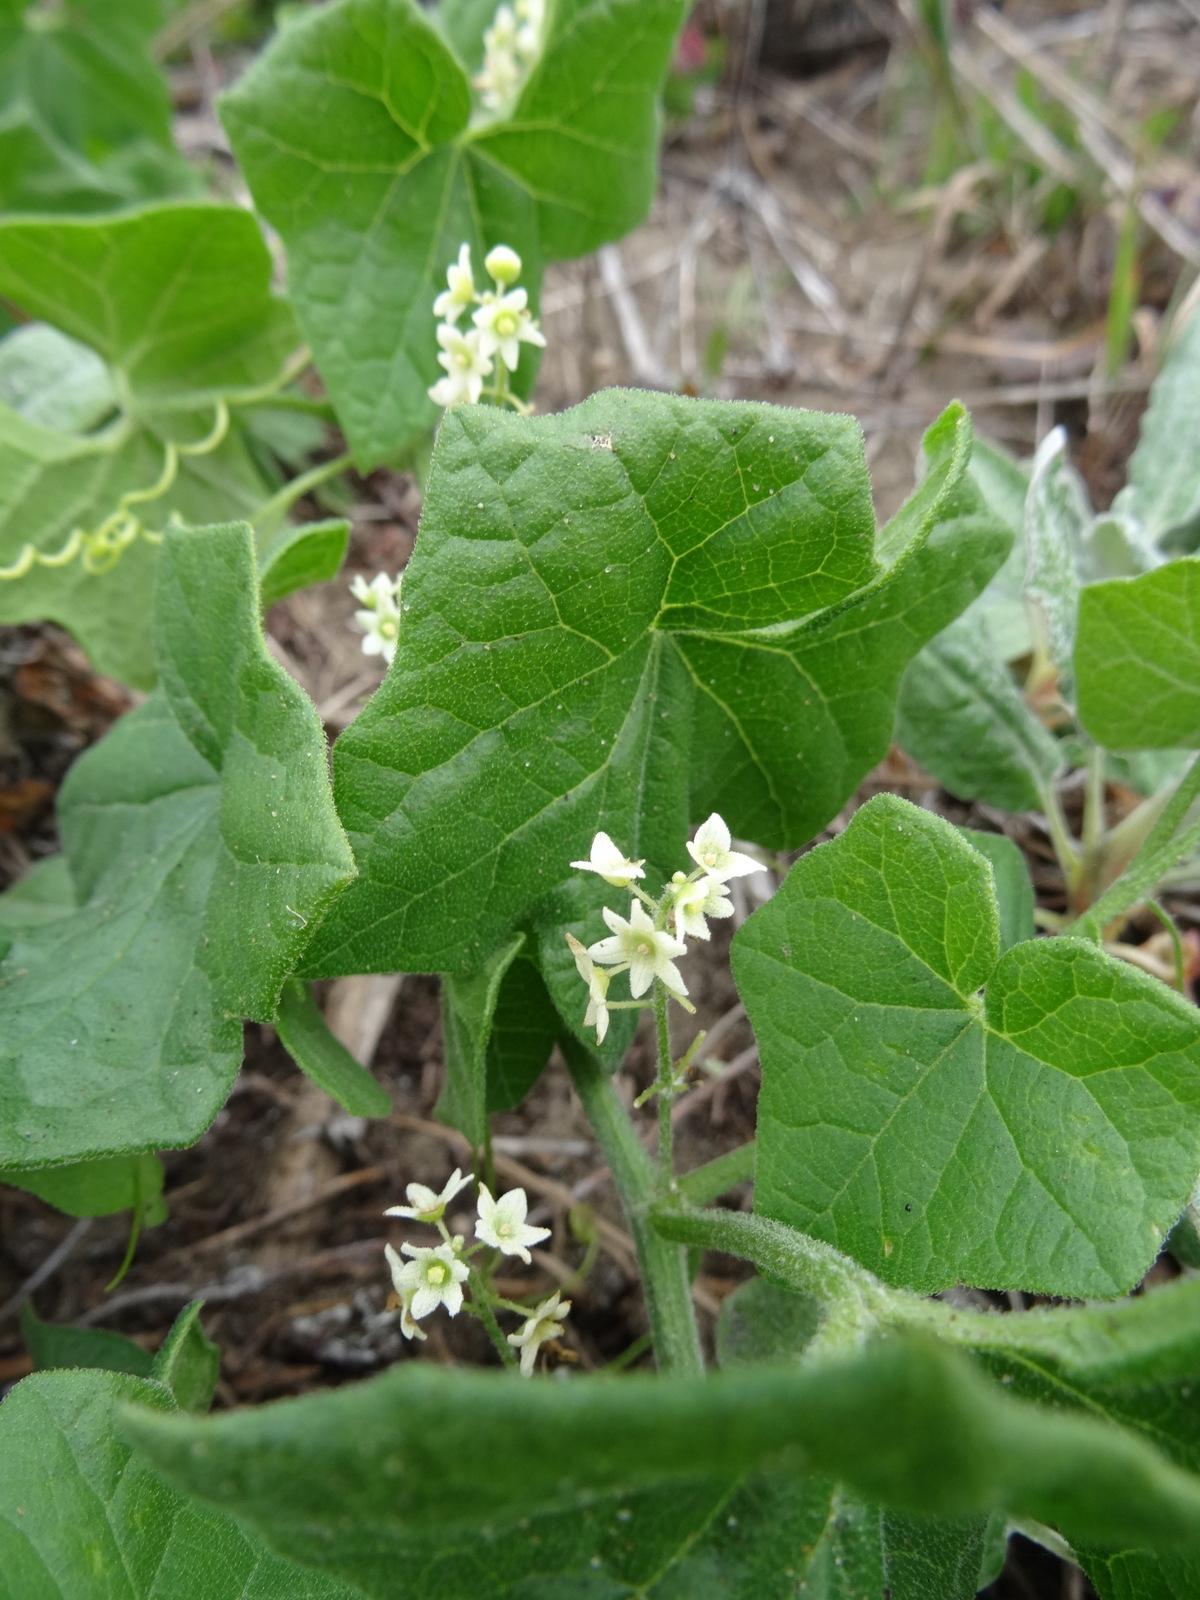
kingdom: Plantae
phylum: Tracheophyta
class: Magnoliopsida
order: Cucurbitales
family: Cucurbitaceae
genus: Marah
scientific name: Marah fabacea
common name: California manroot
